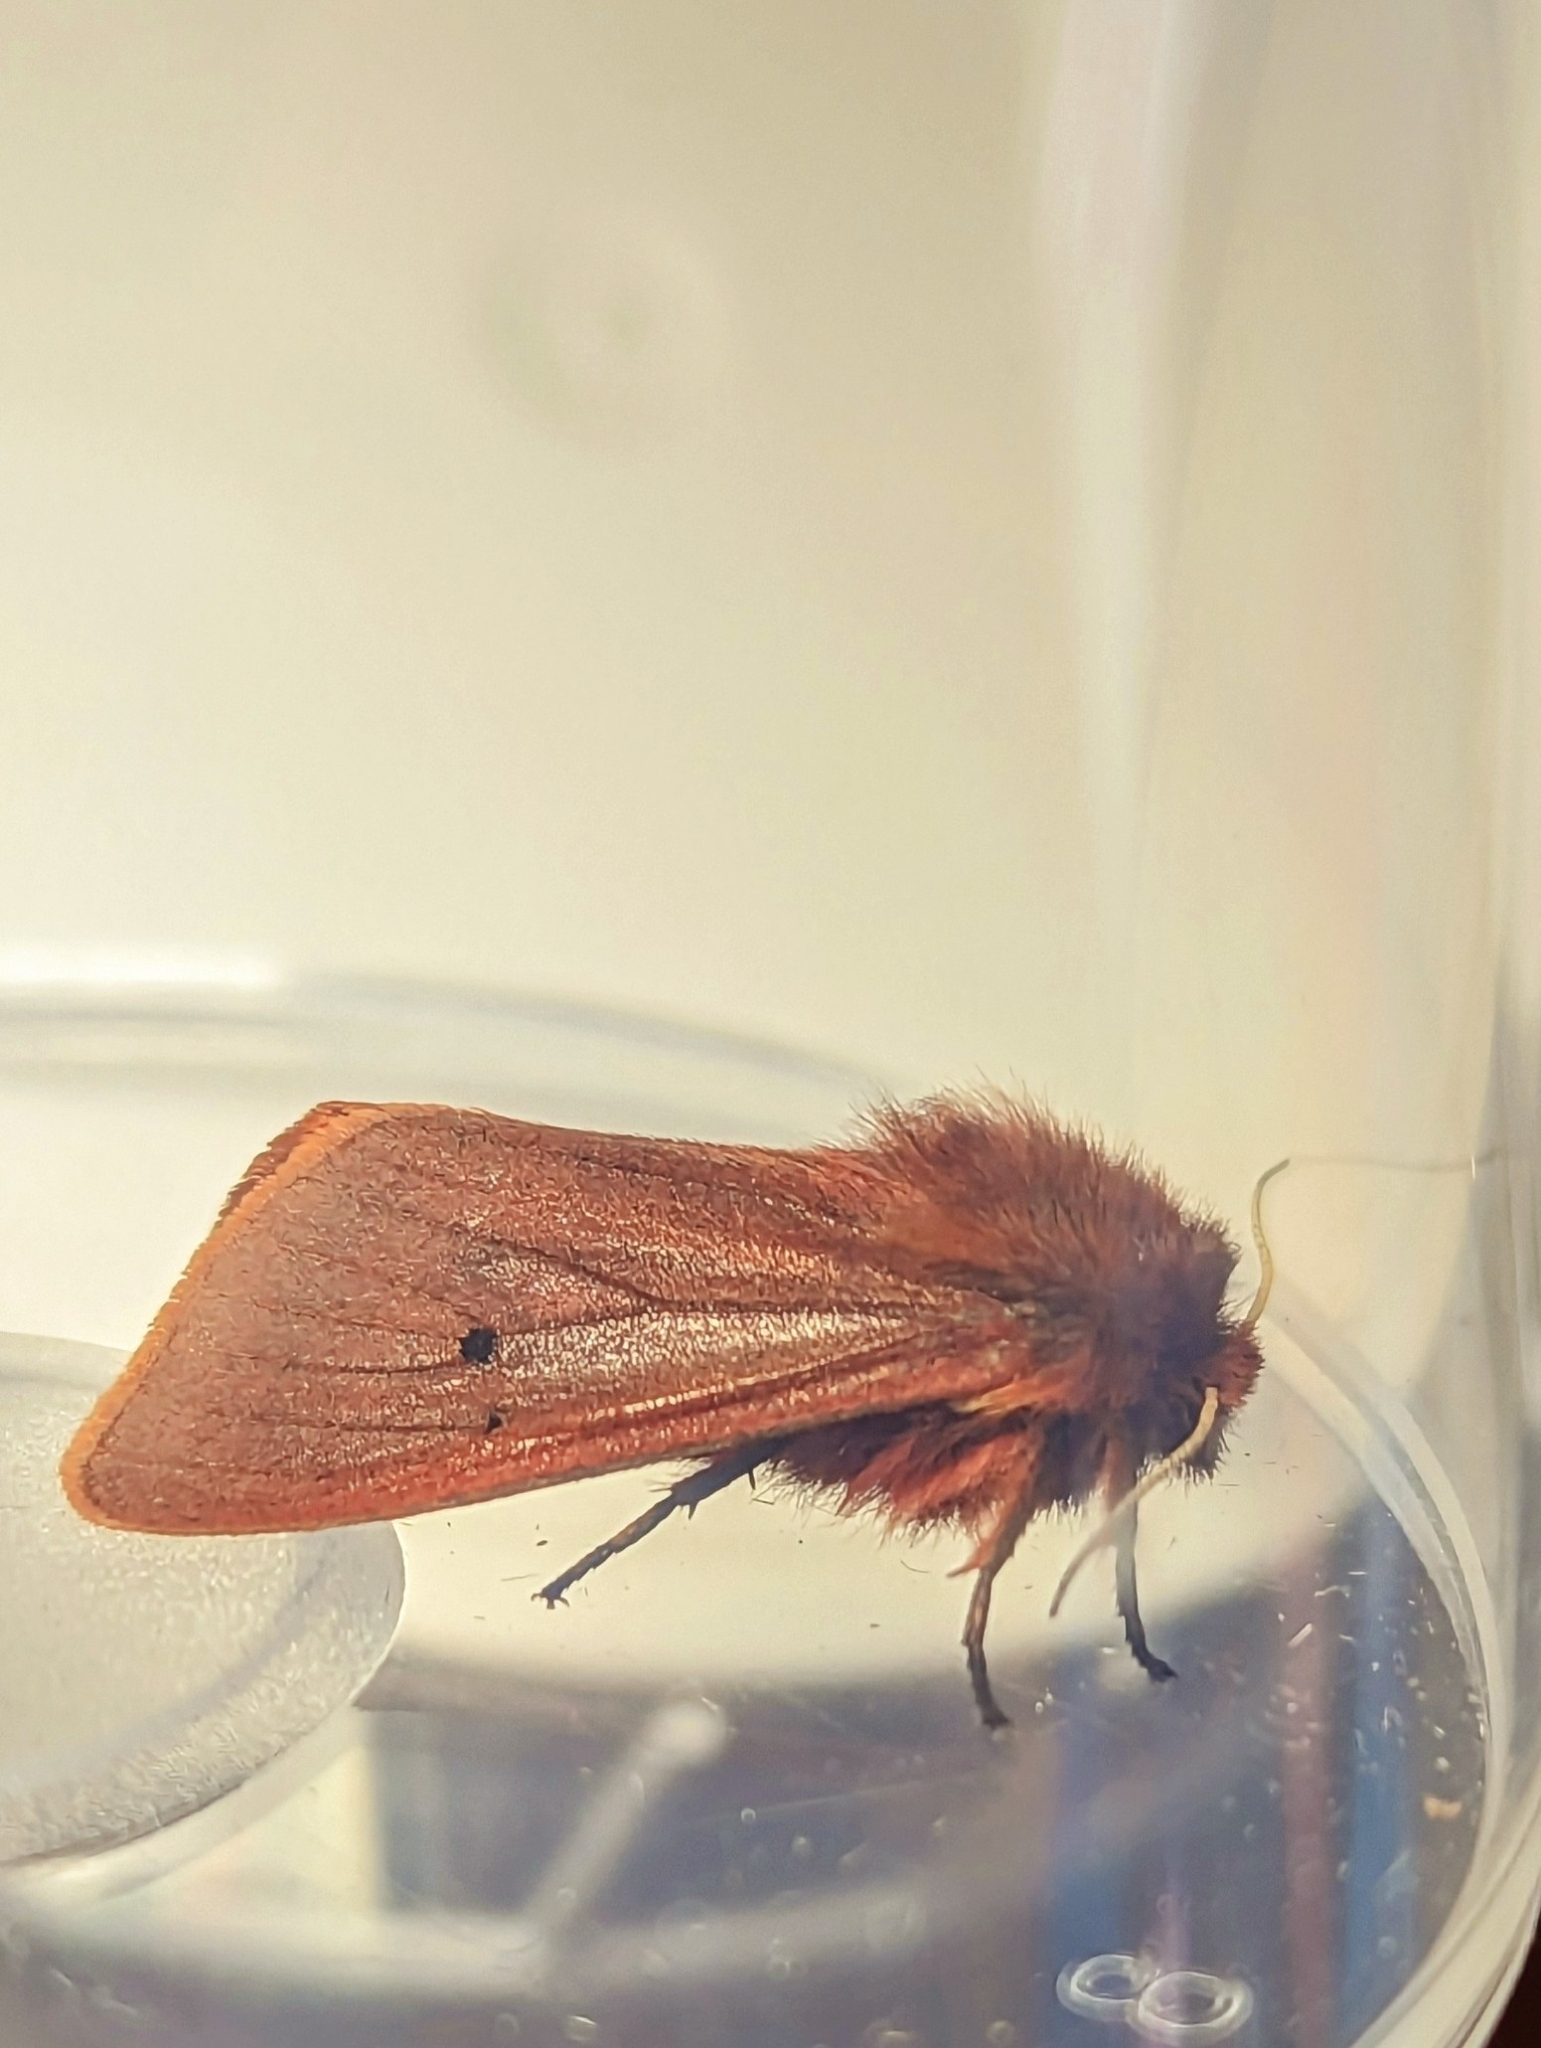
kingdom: Animalia
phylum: Arthropoda
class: Insecta
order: Lepidoptera
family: Erebidae
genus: Phragmatobia
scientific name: Phragmatobia fuliginosa
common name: Ruby tiger
